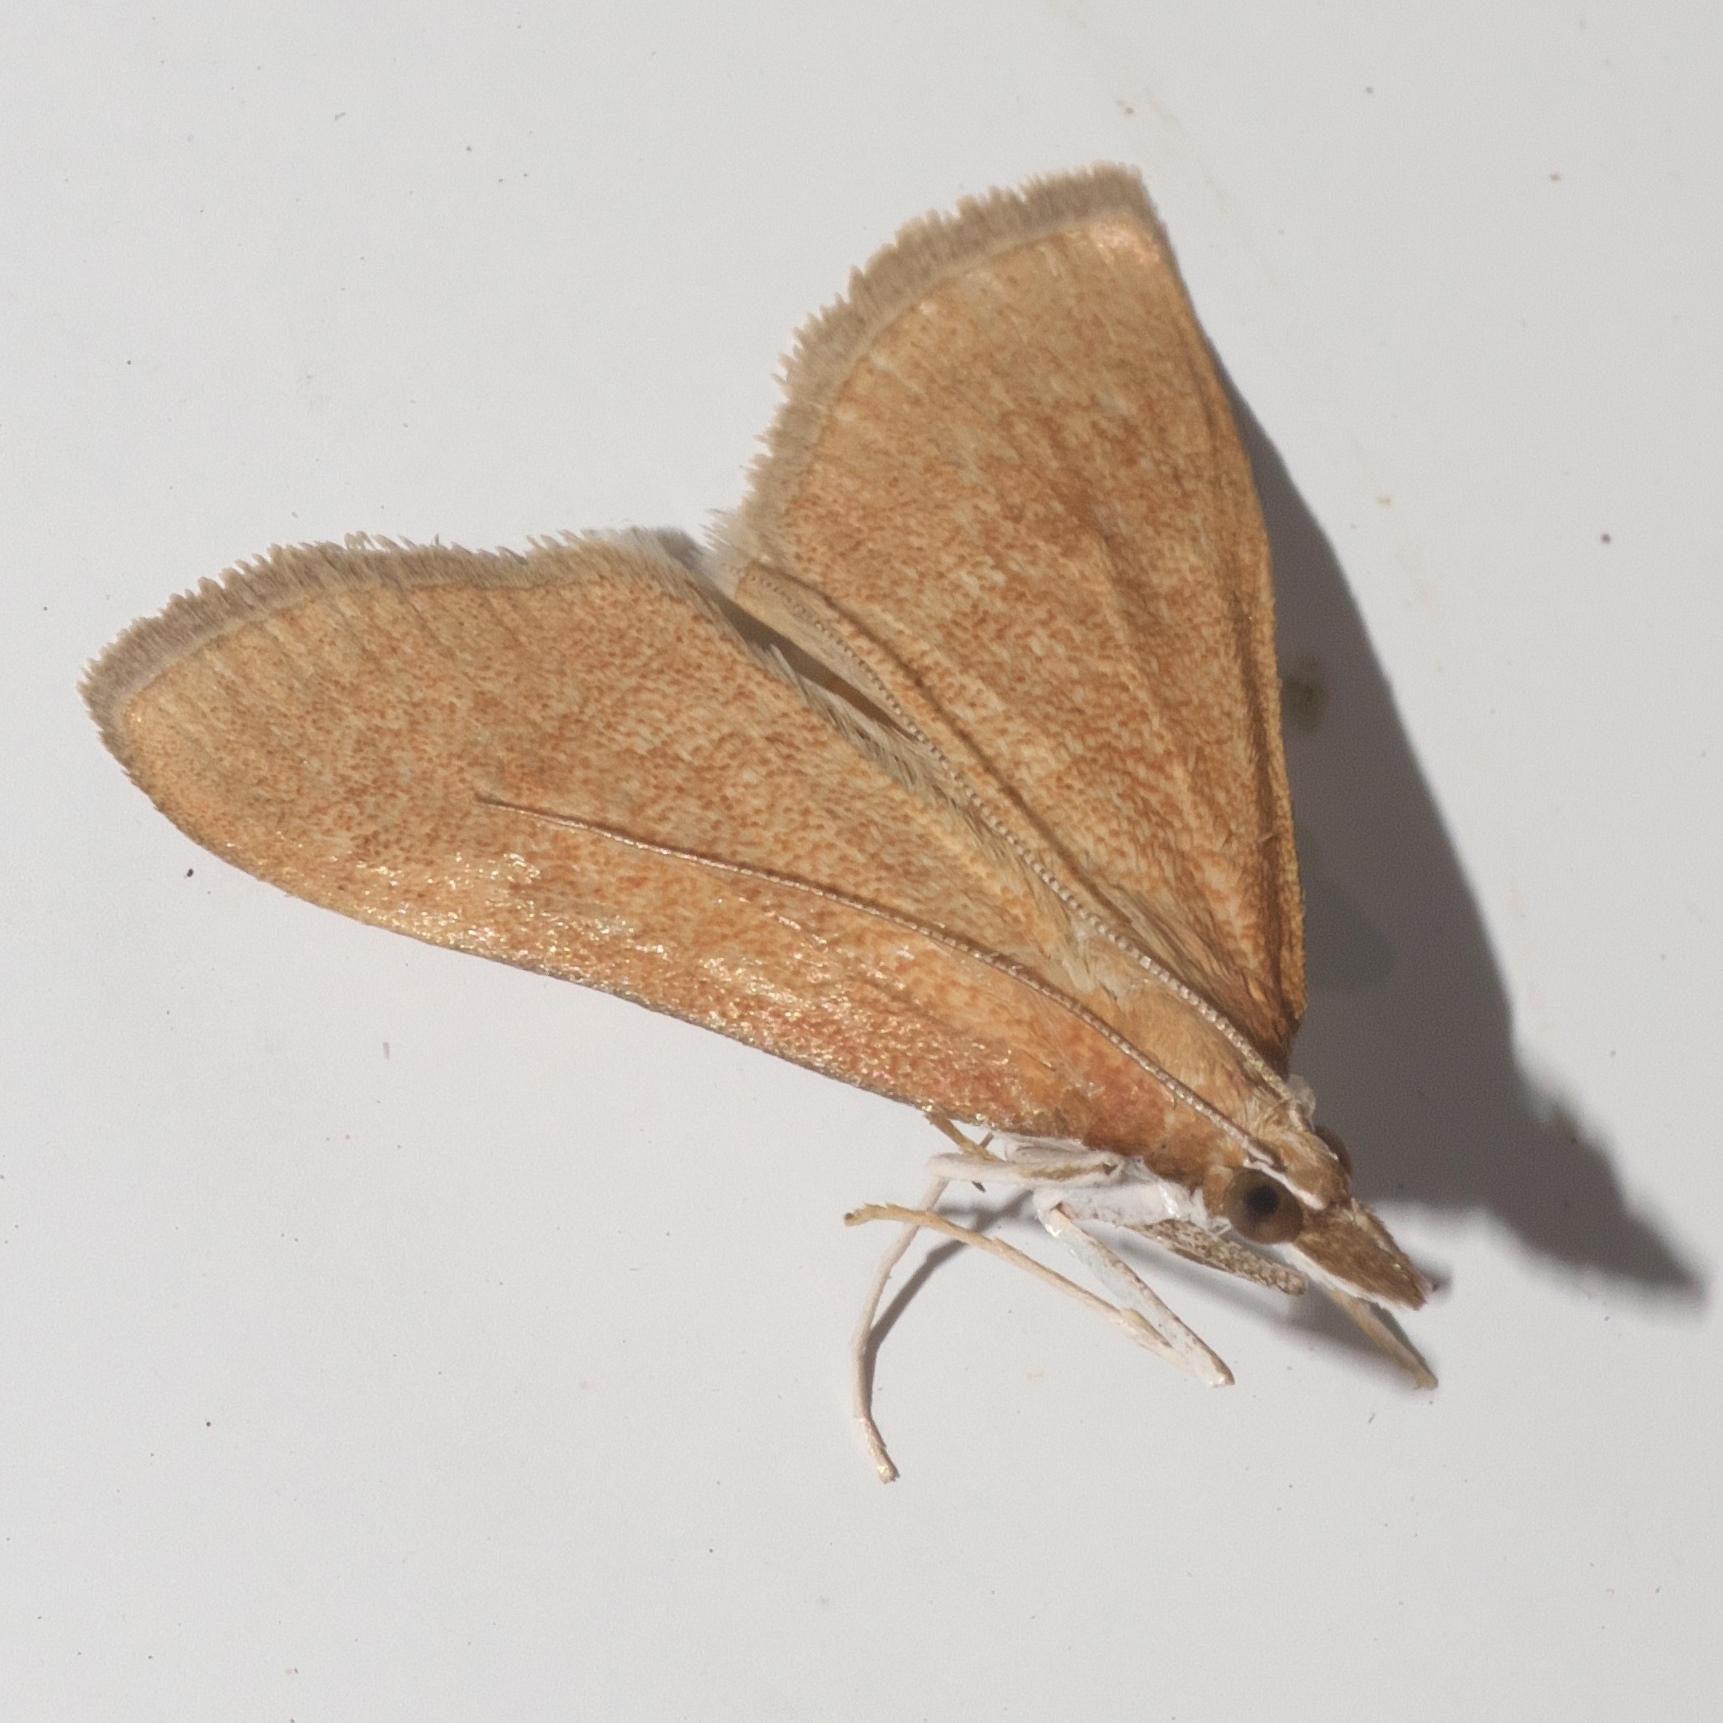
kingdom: Animalia
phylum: Arthropoda
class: Insecta
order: Lepidoptera
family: Crambidae
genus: Saucrobotys
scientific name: Saucrobotys futilalis
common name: Dogbane saucrobotys moth
